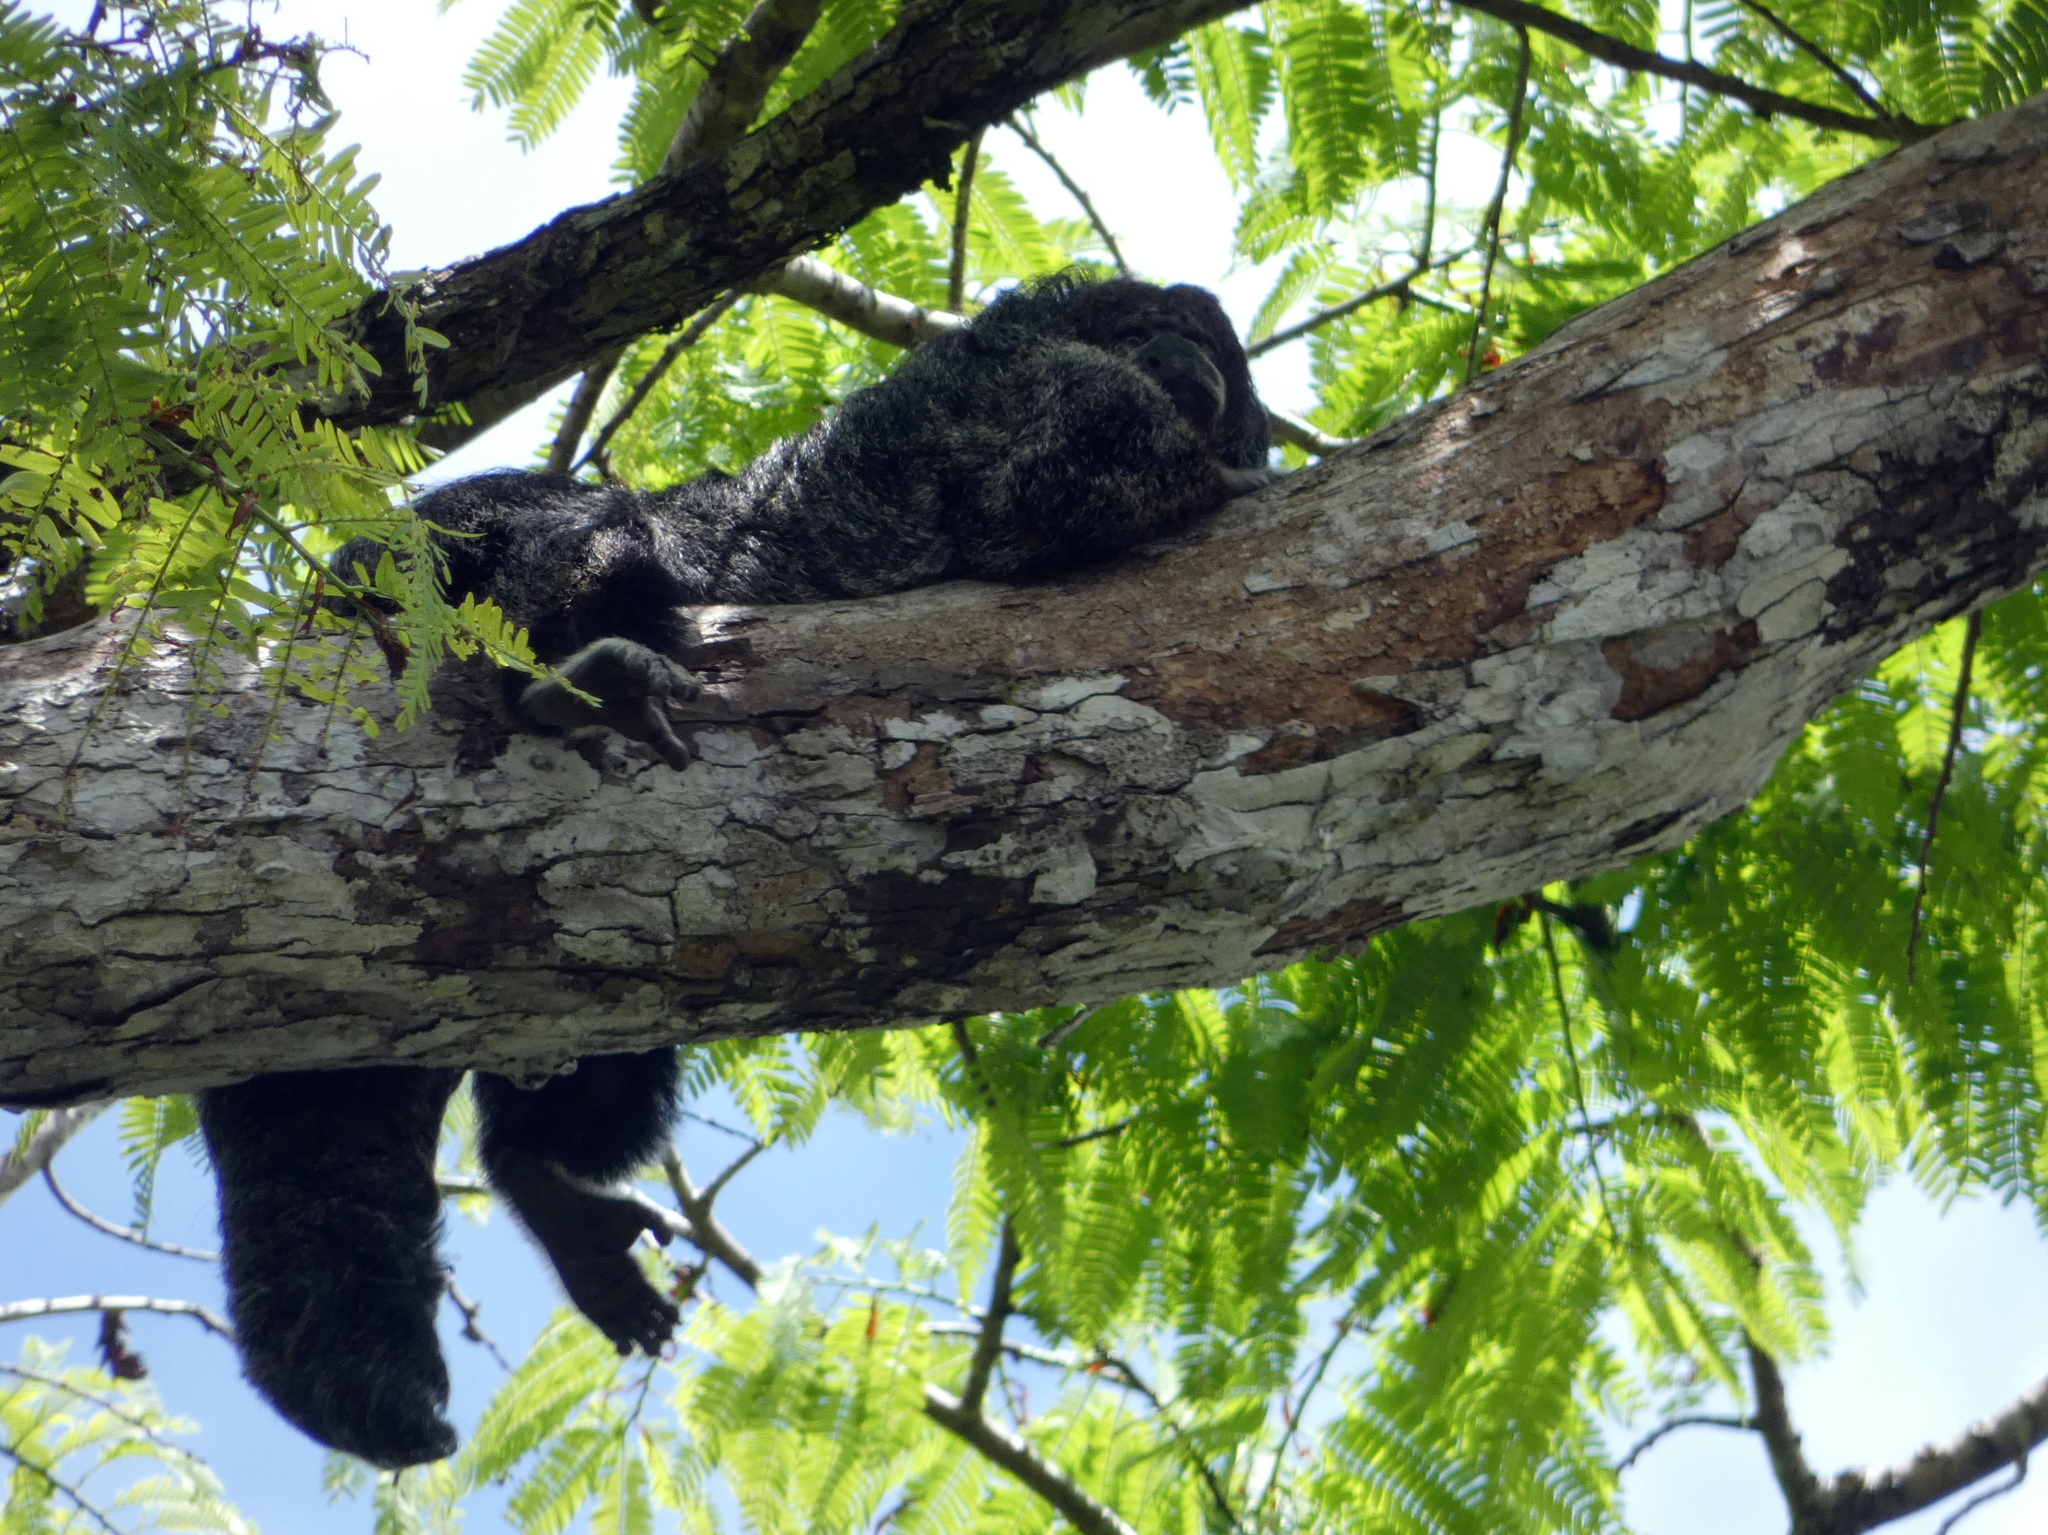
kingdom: Animalia
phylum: Chordata
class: Mammalia
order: Primates
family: Pitheciidae
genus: Pithecia
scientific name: Pithecia milleri
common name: Miller's saki
